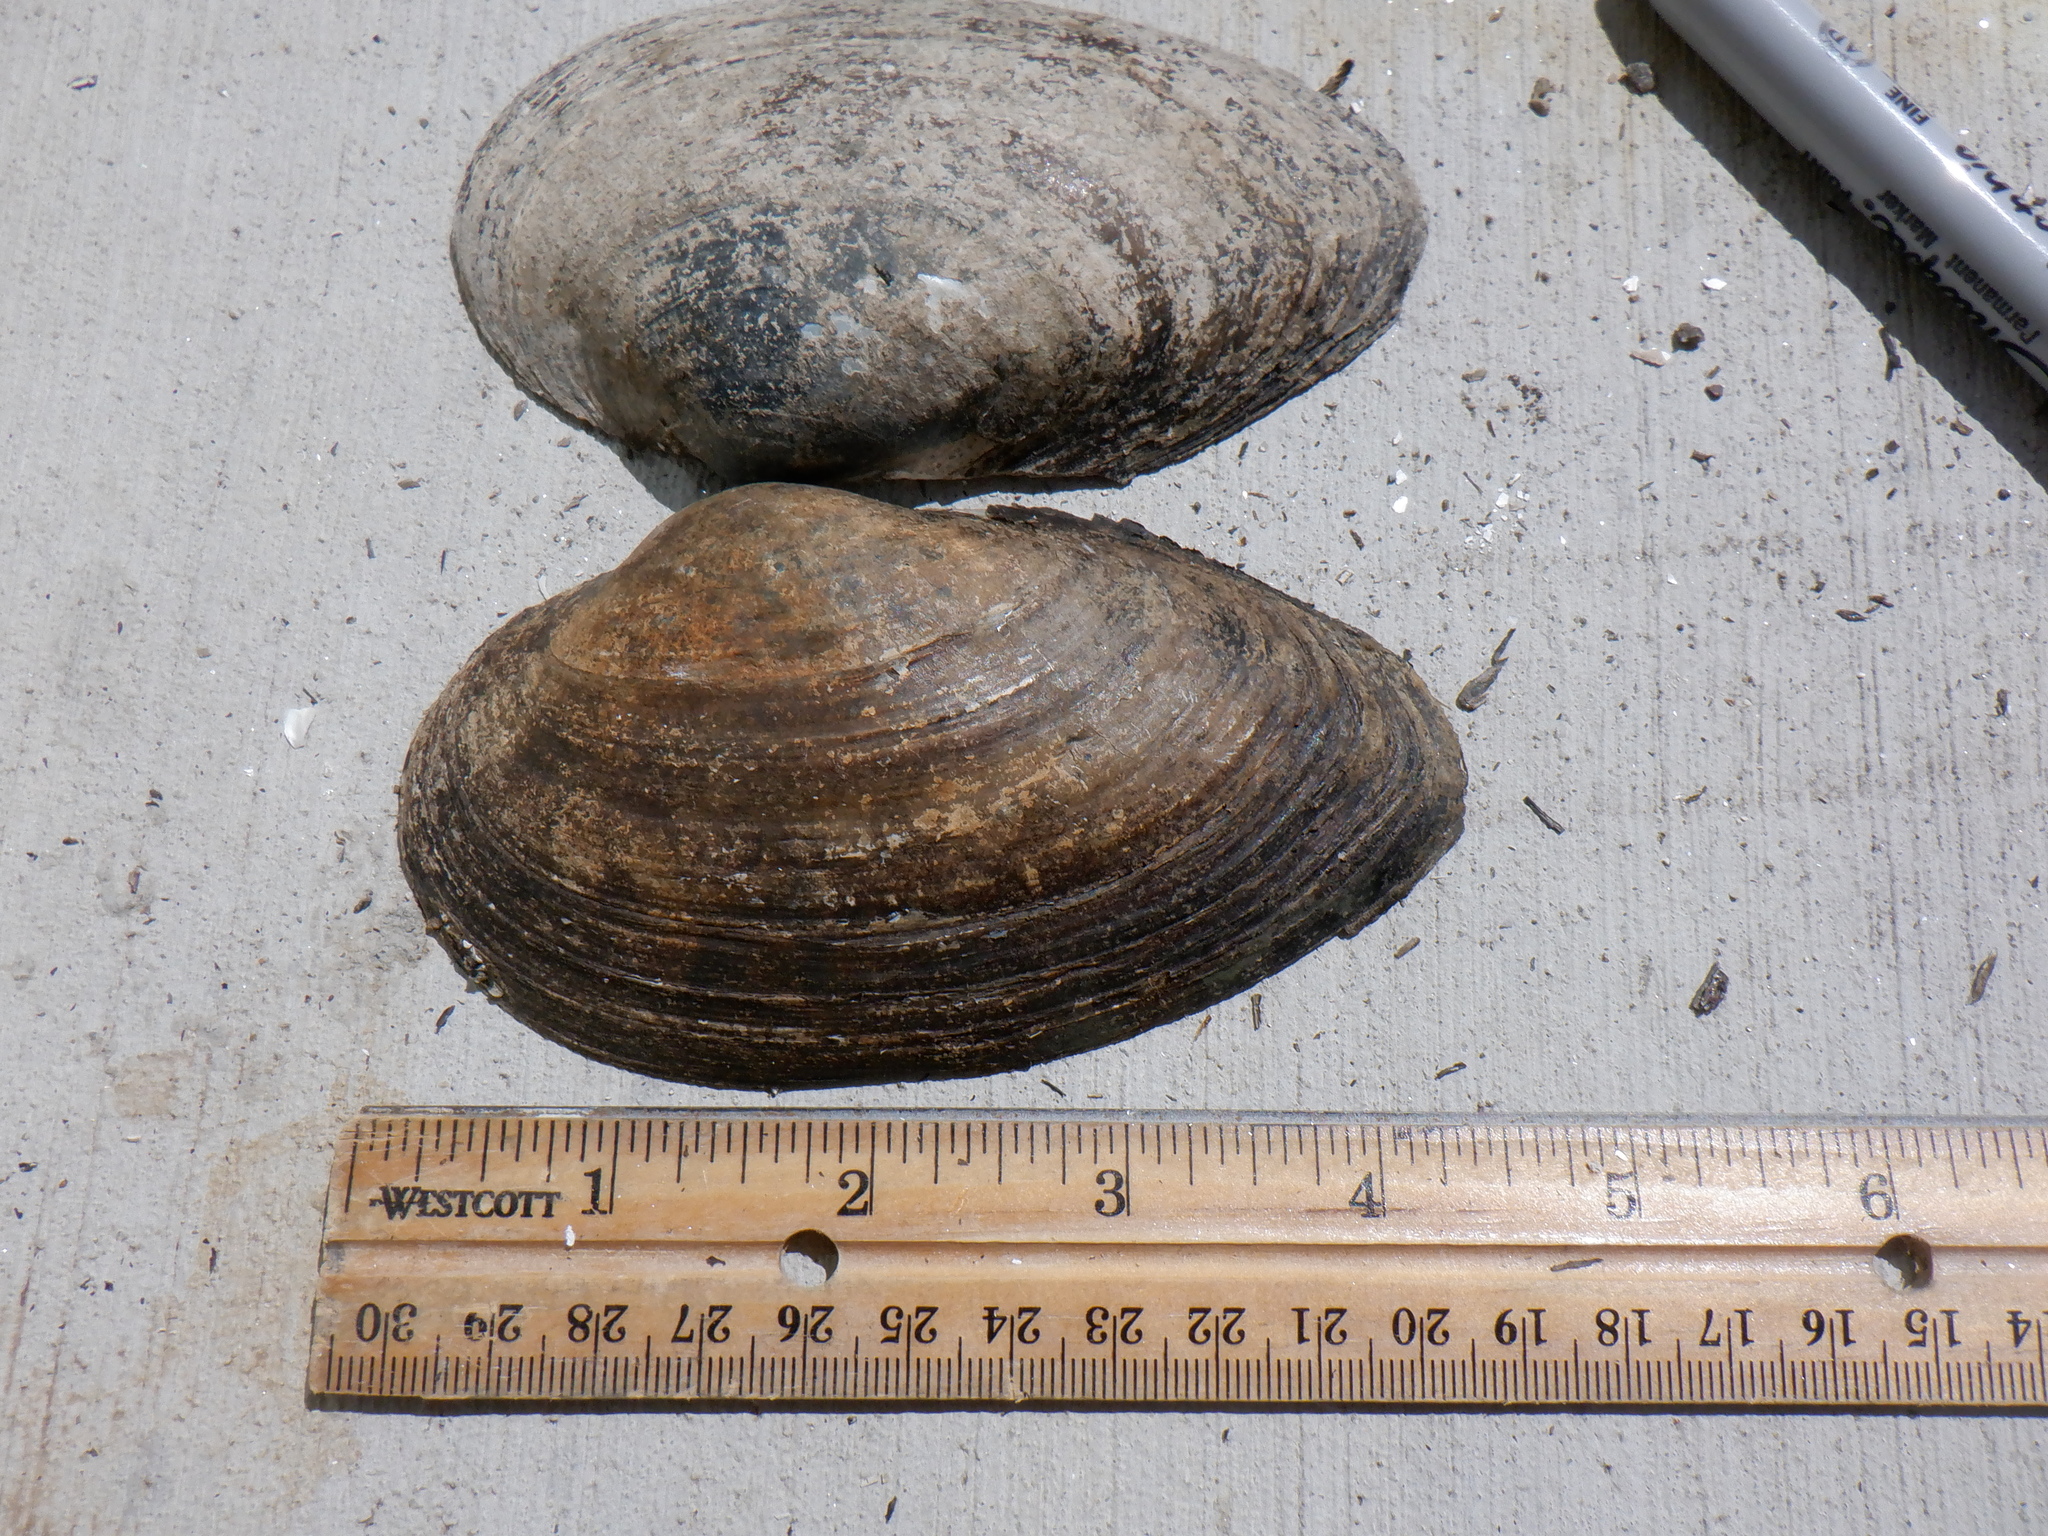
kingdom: Animalia
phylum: Mollusca
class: Bivalvia
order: Unionida
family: Unionidae
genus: Pyganodon
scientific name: Pyganodon grandis
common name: Giant floater
